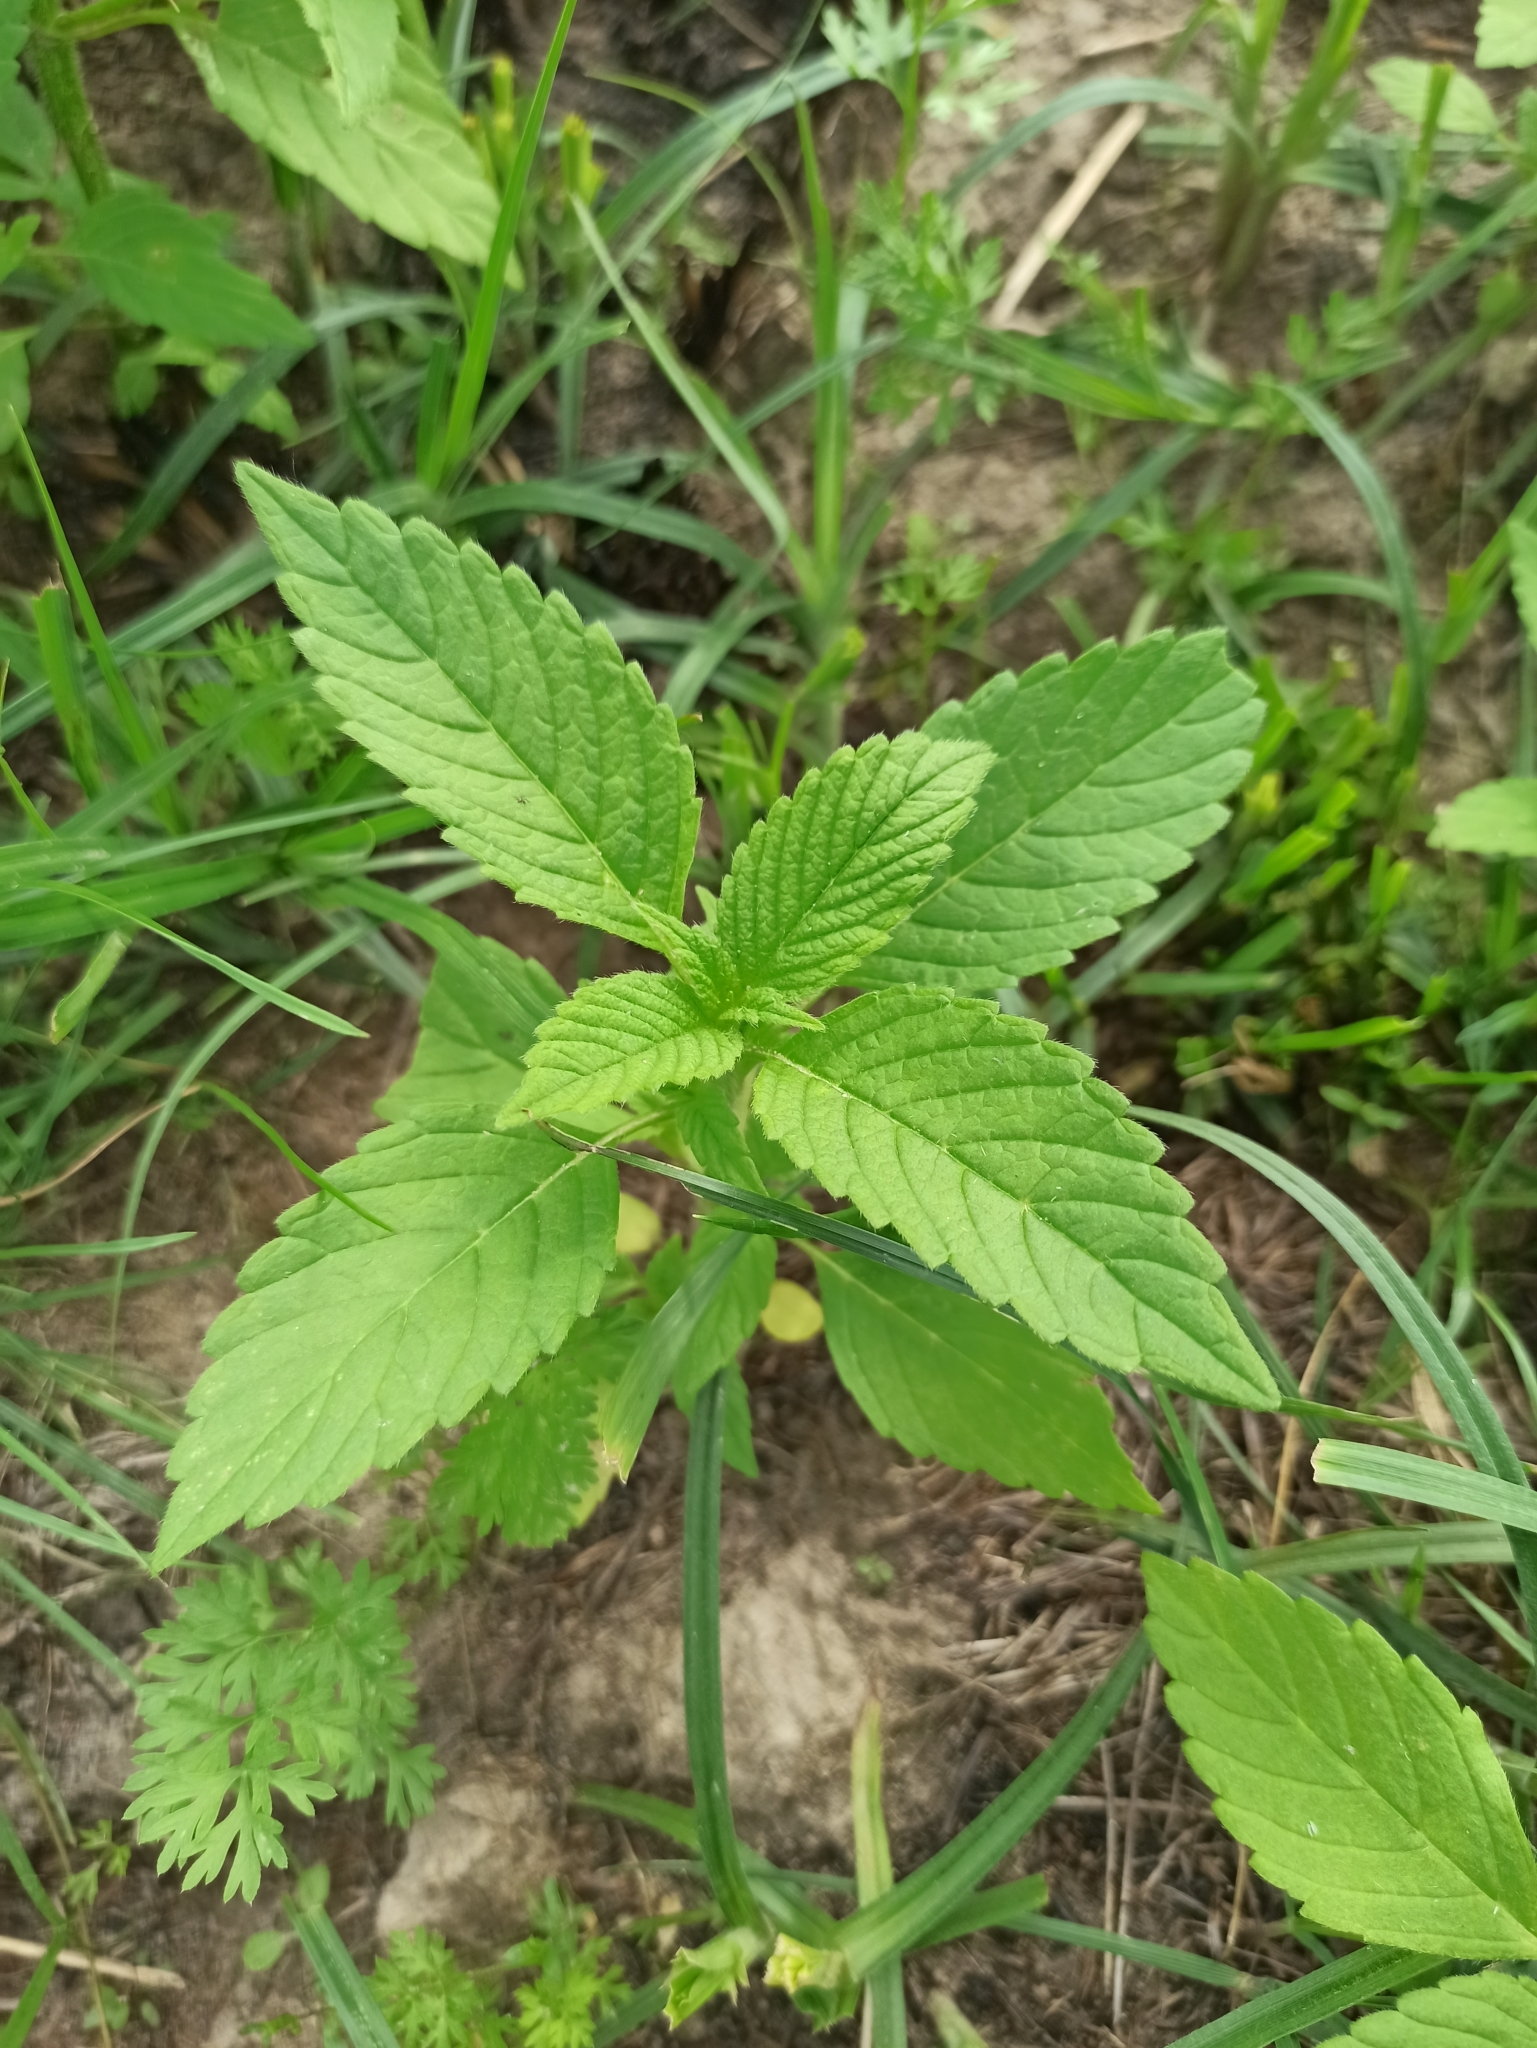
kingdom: Plantae
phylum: Tracheophyta
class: Magnoliopsida
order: Lamiales
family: Lamiaceae
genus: Galeopsis
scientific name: Galeopsis
